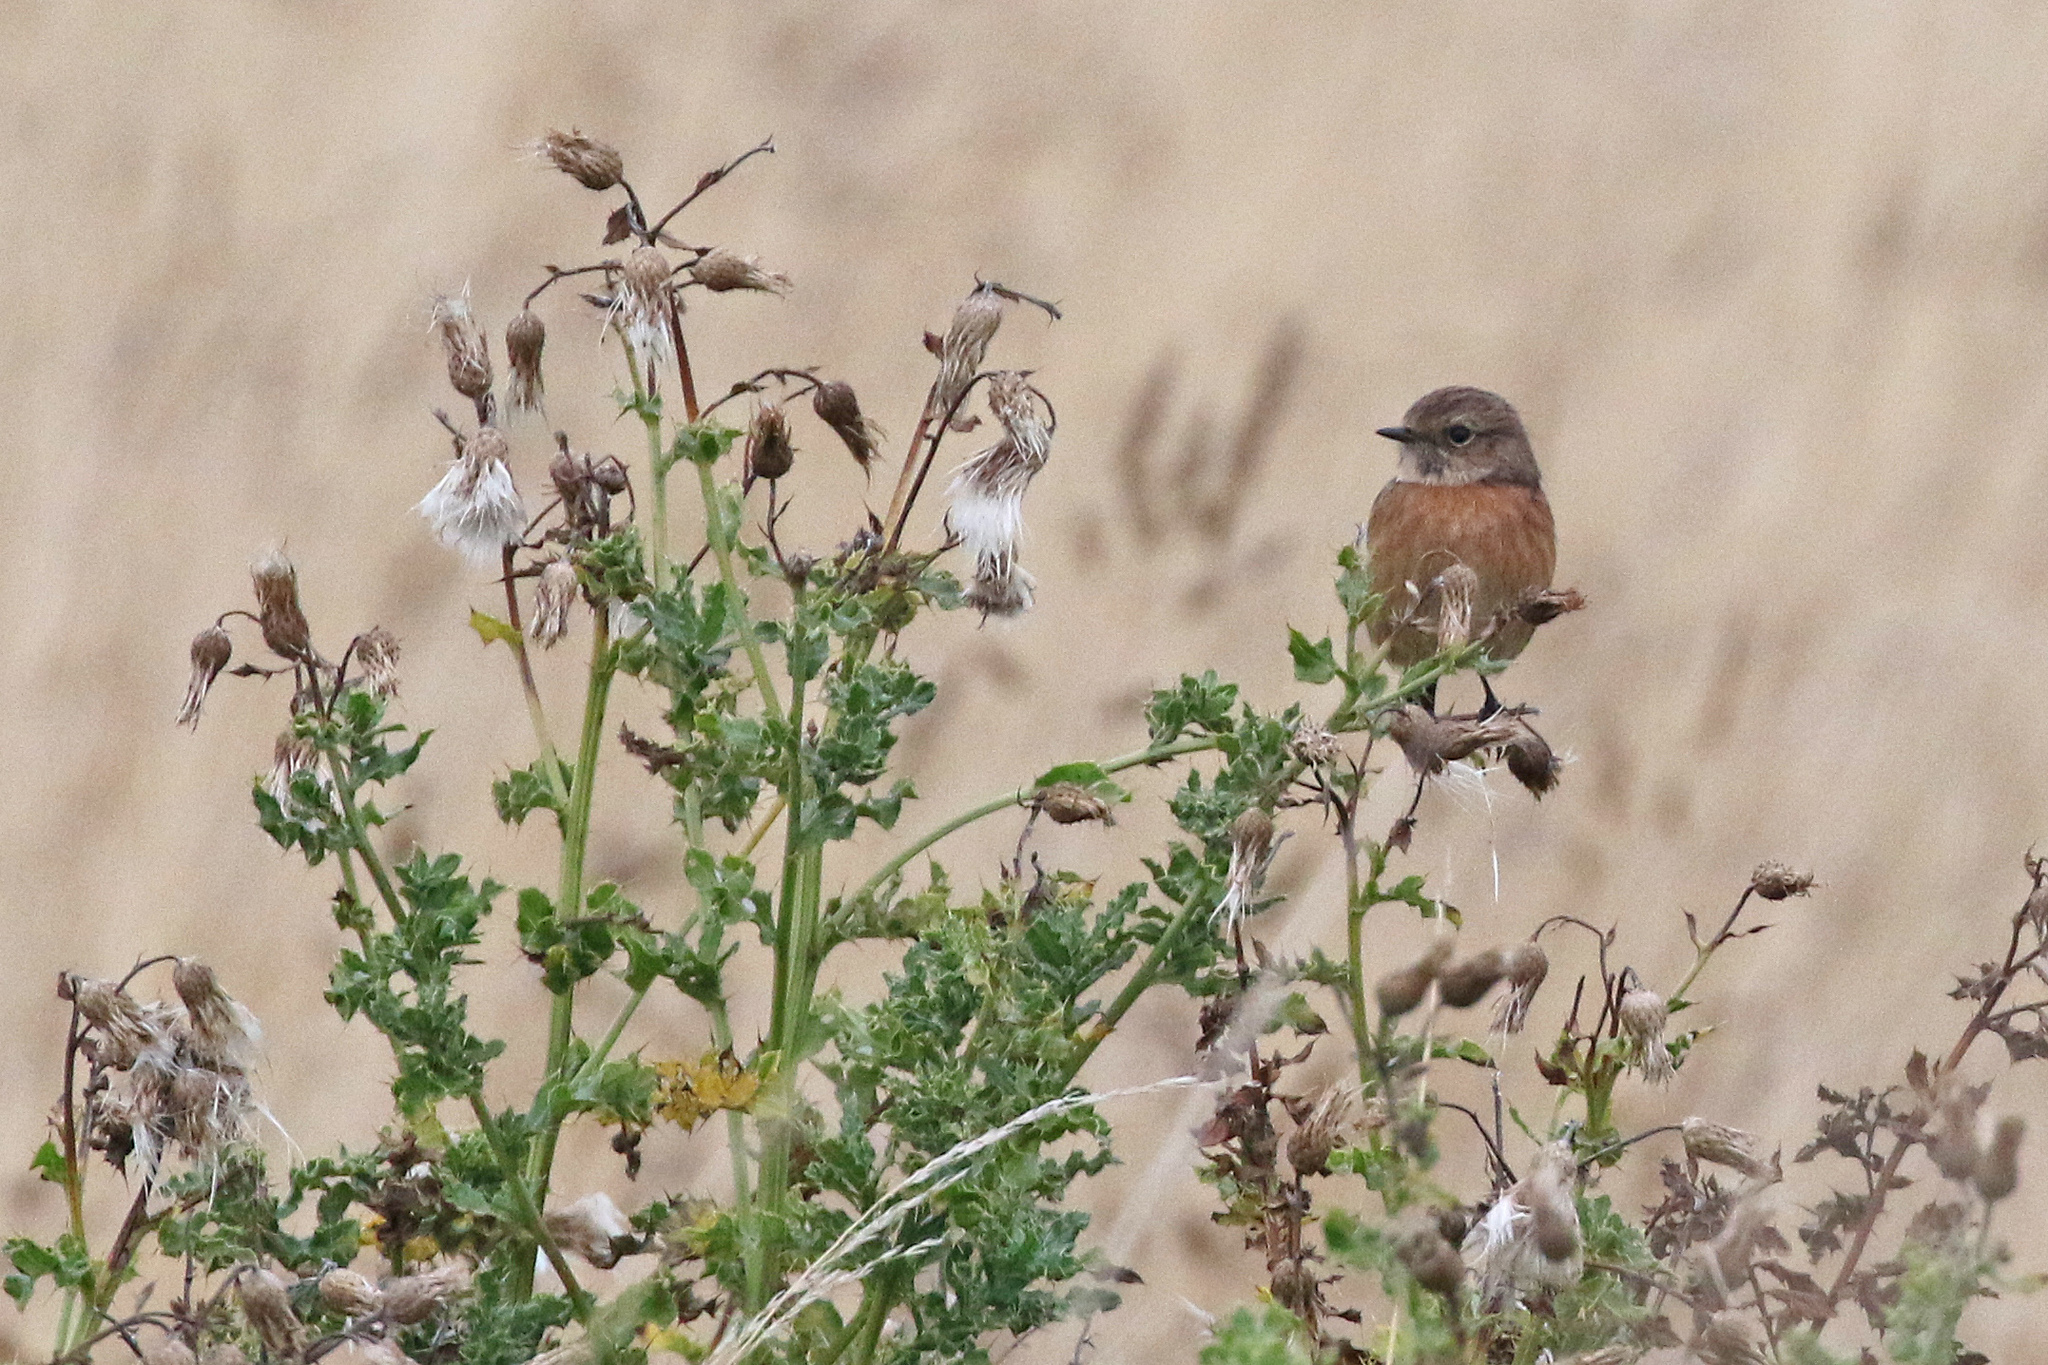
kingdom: Animalia
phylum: Chordata
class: Aves
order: Passeriformes
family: Muscicapidae
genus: Saxicola
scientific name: Saxicola rubicola
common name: European stonechat
